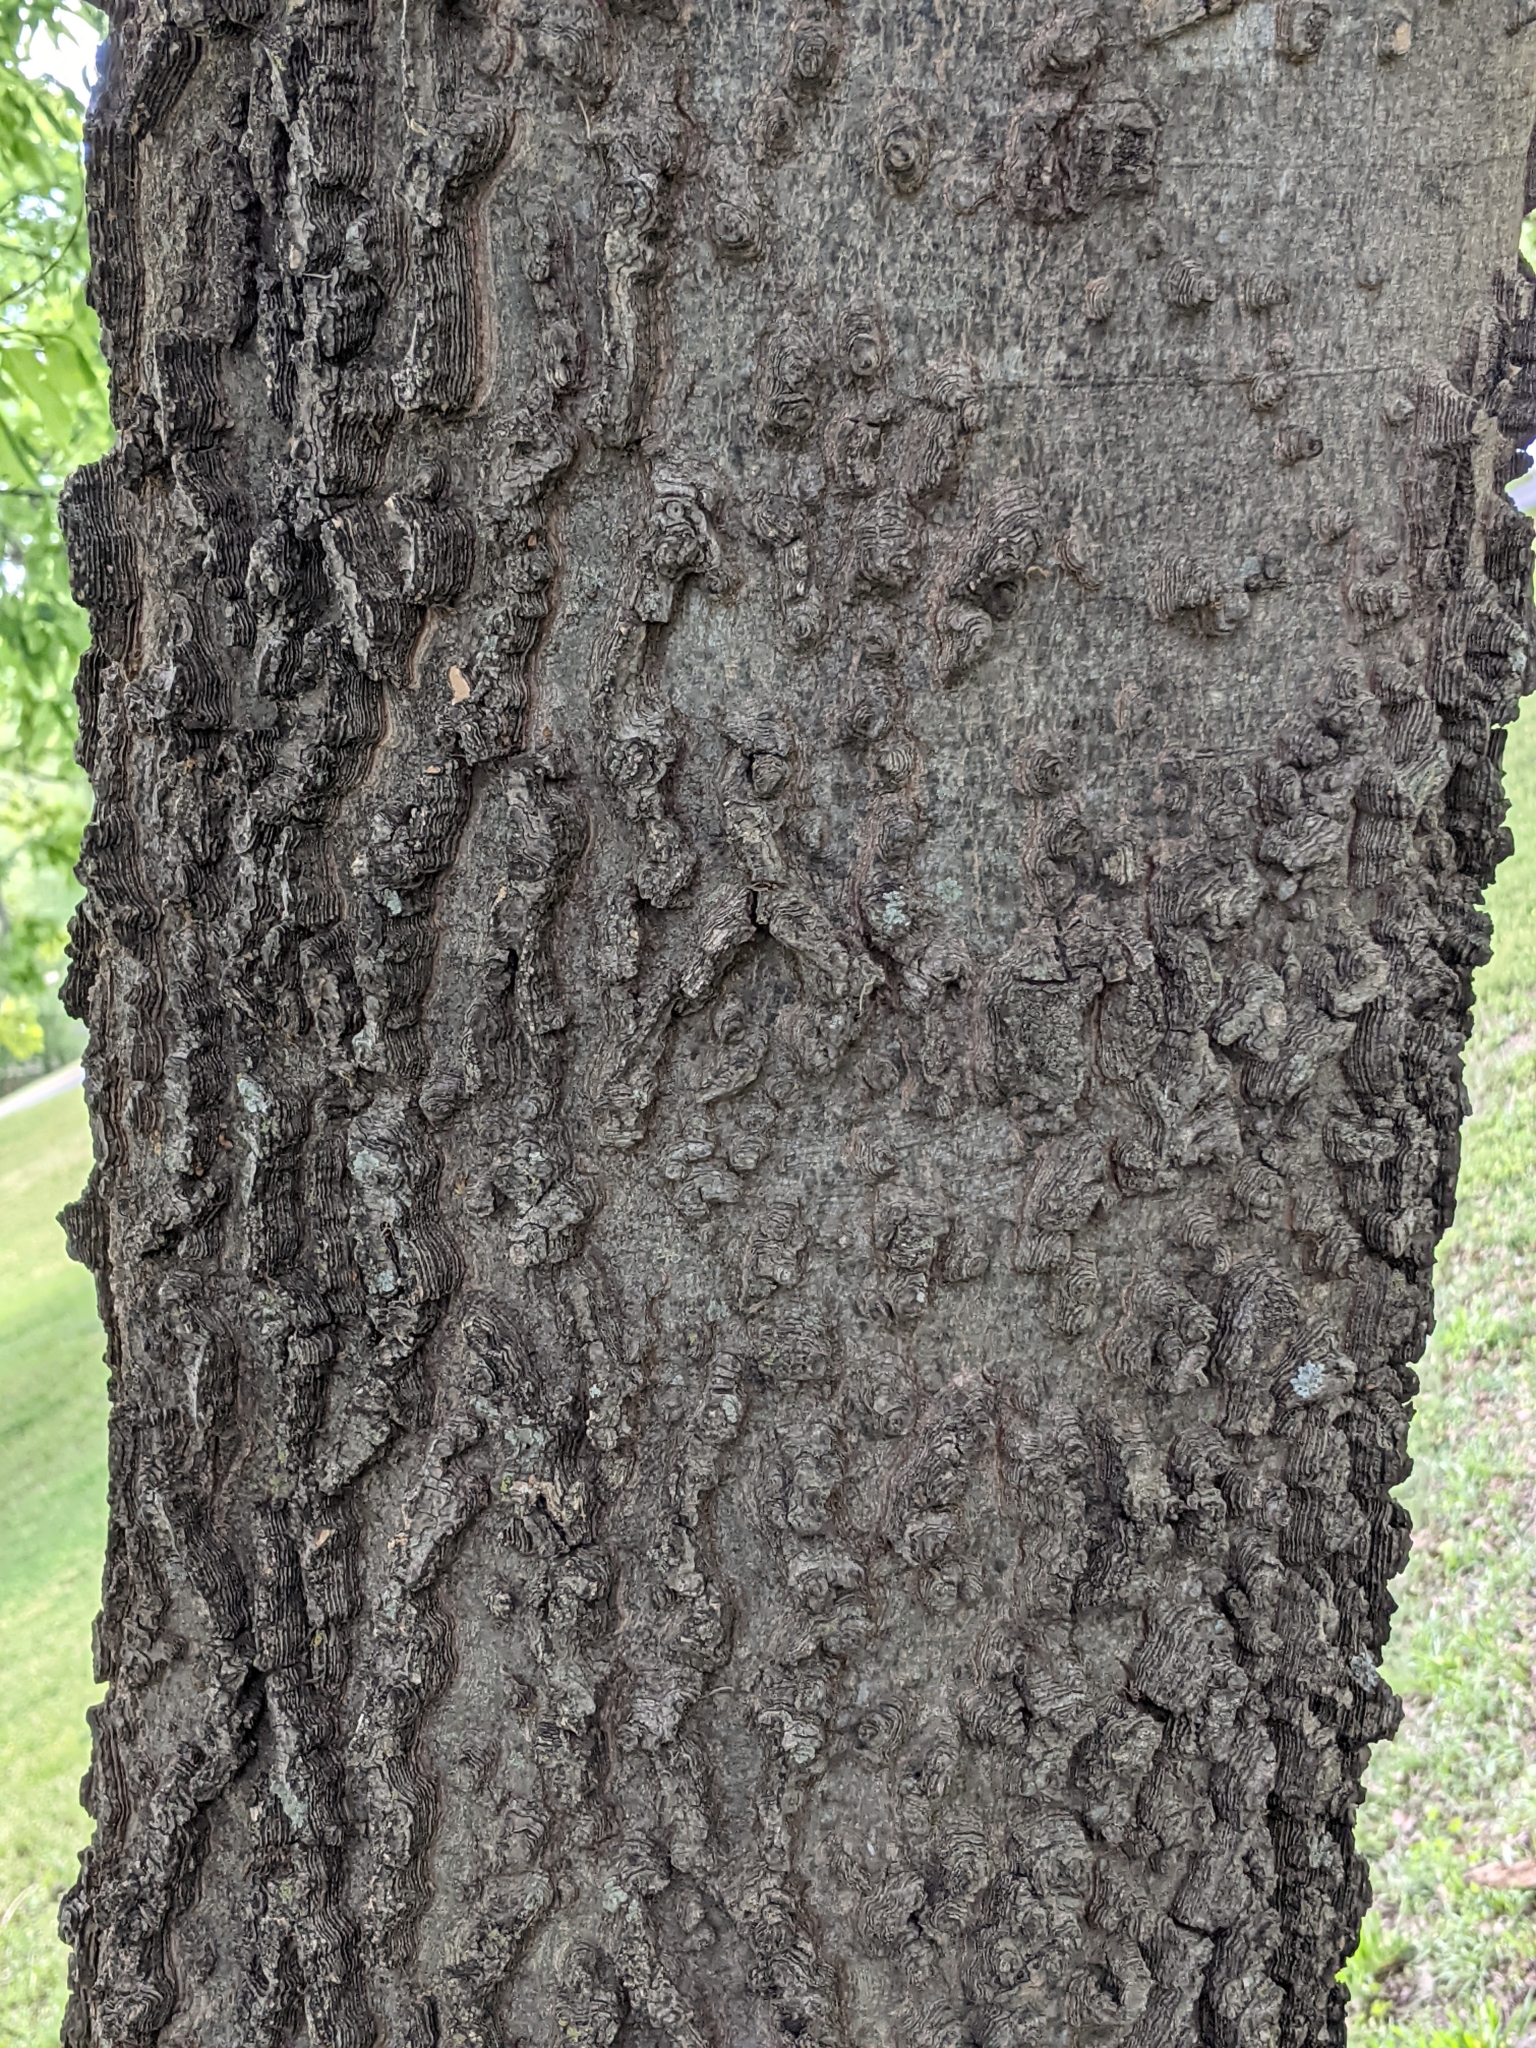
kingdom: Plantae
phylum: Tracheophyta
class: Magnoliopsida
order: Rosales
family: Cannabaceae
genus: Celtis
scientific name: Celtis laevigata
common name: Sugarberry
